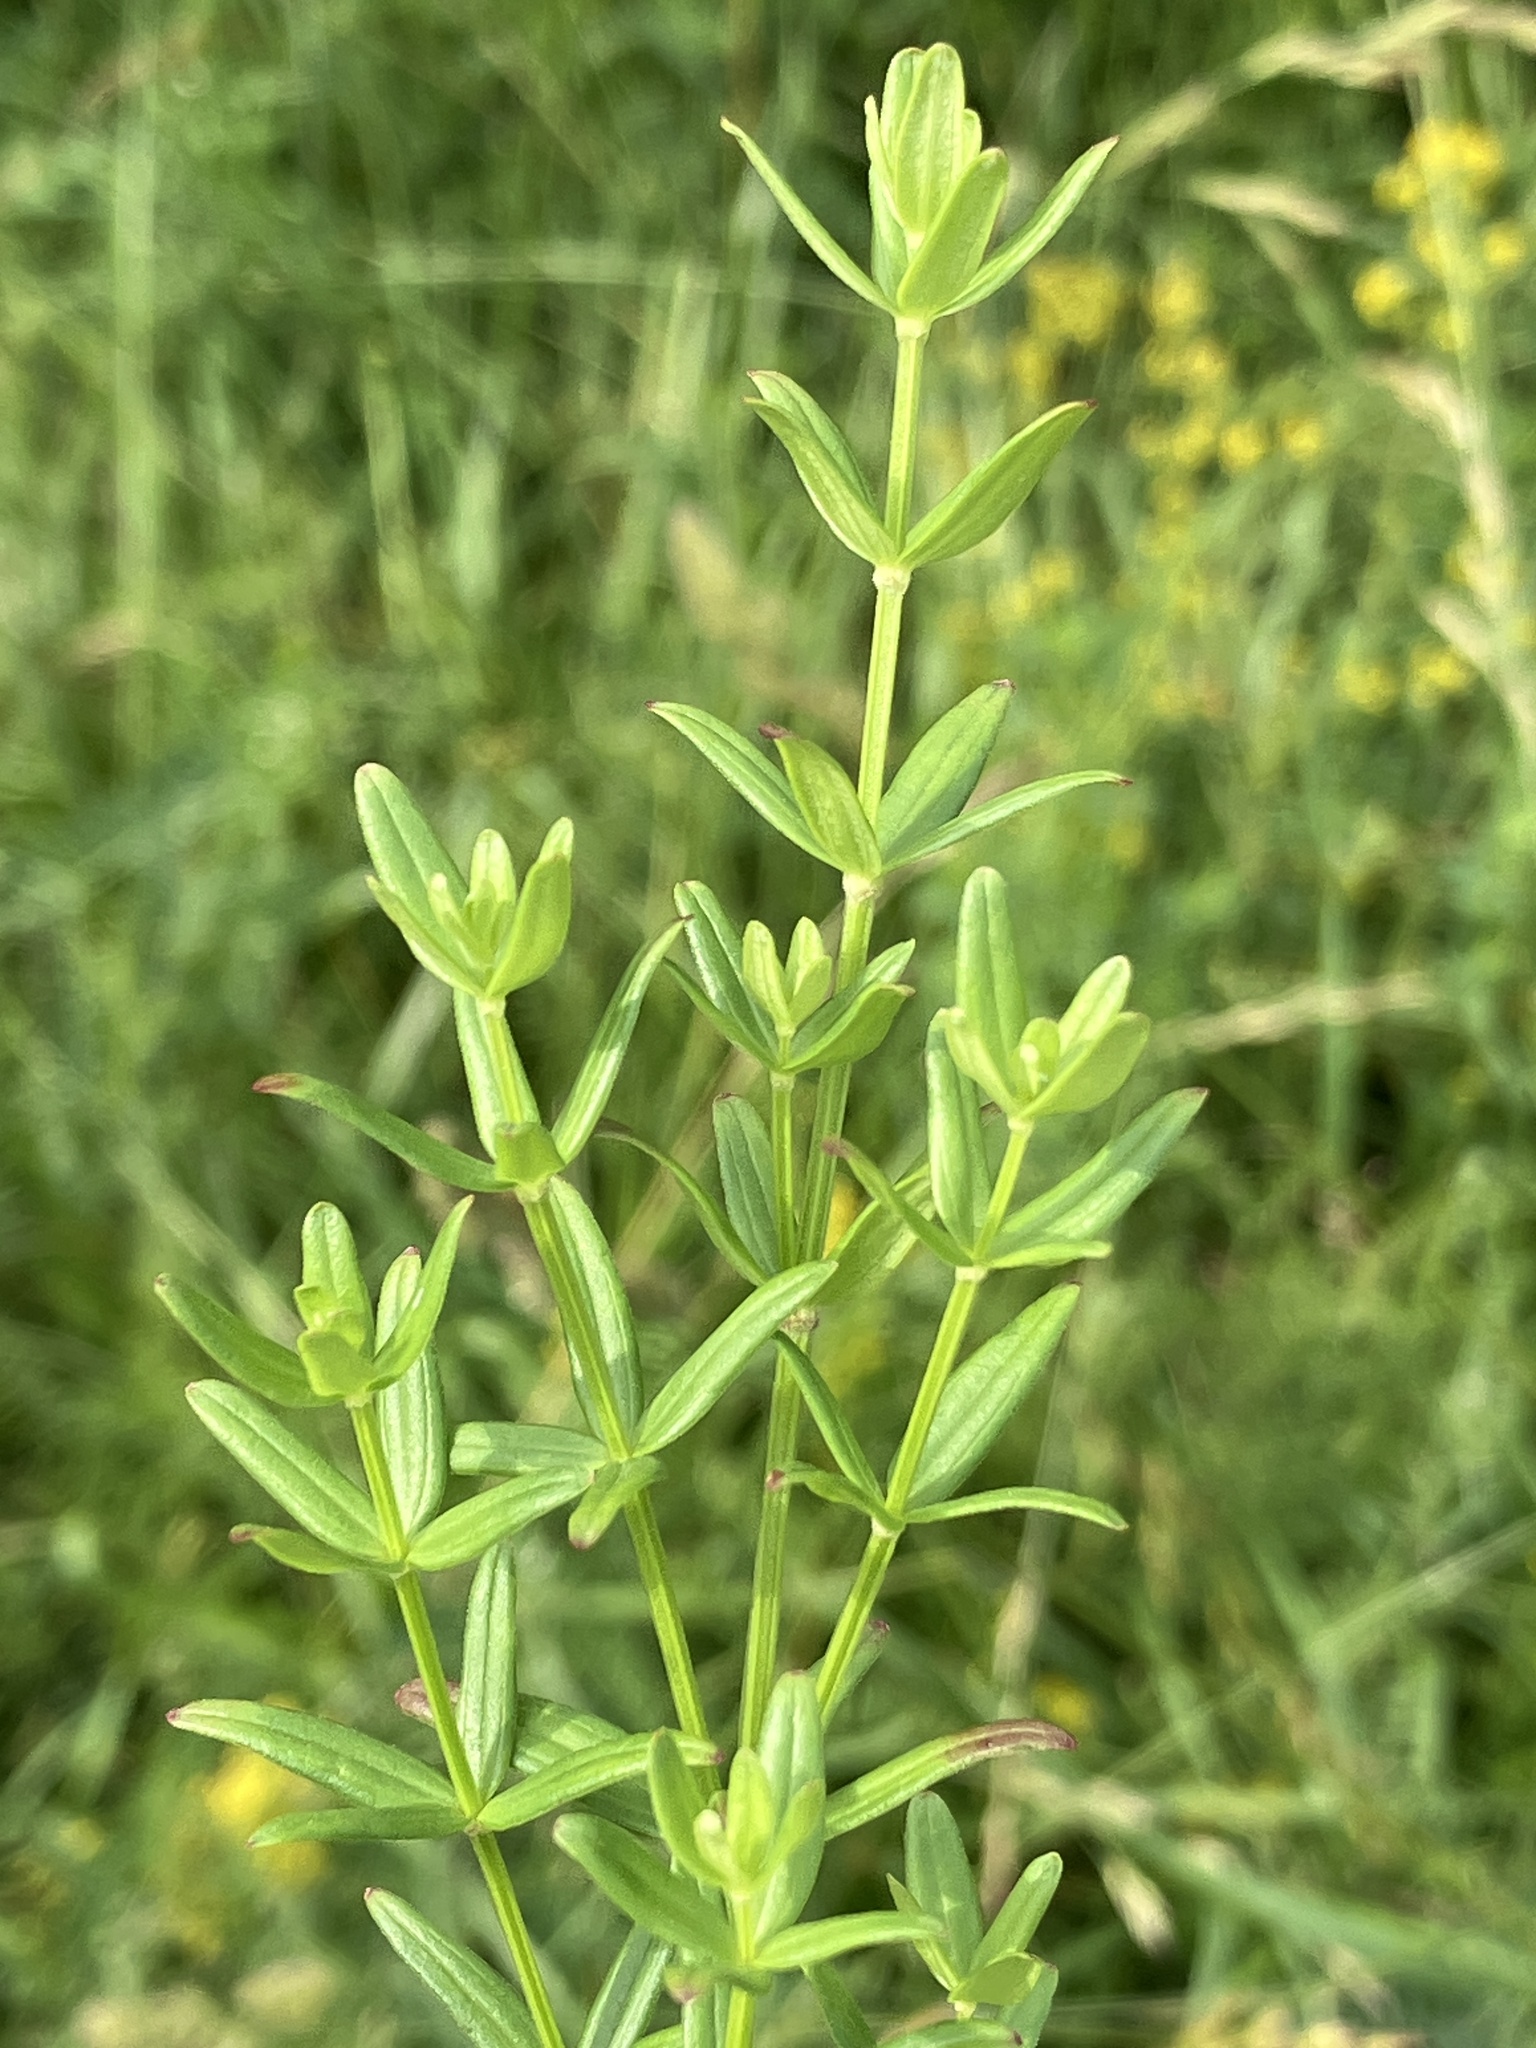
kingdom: Plantae
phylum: Tracheophyta
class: Magnoliopsida
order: Gentianales
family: Rubiaceae
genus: Galium
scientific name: Galium boreale
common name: Northern bedstraw
